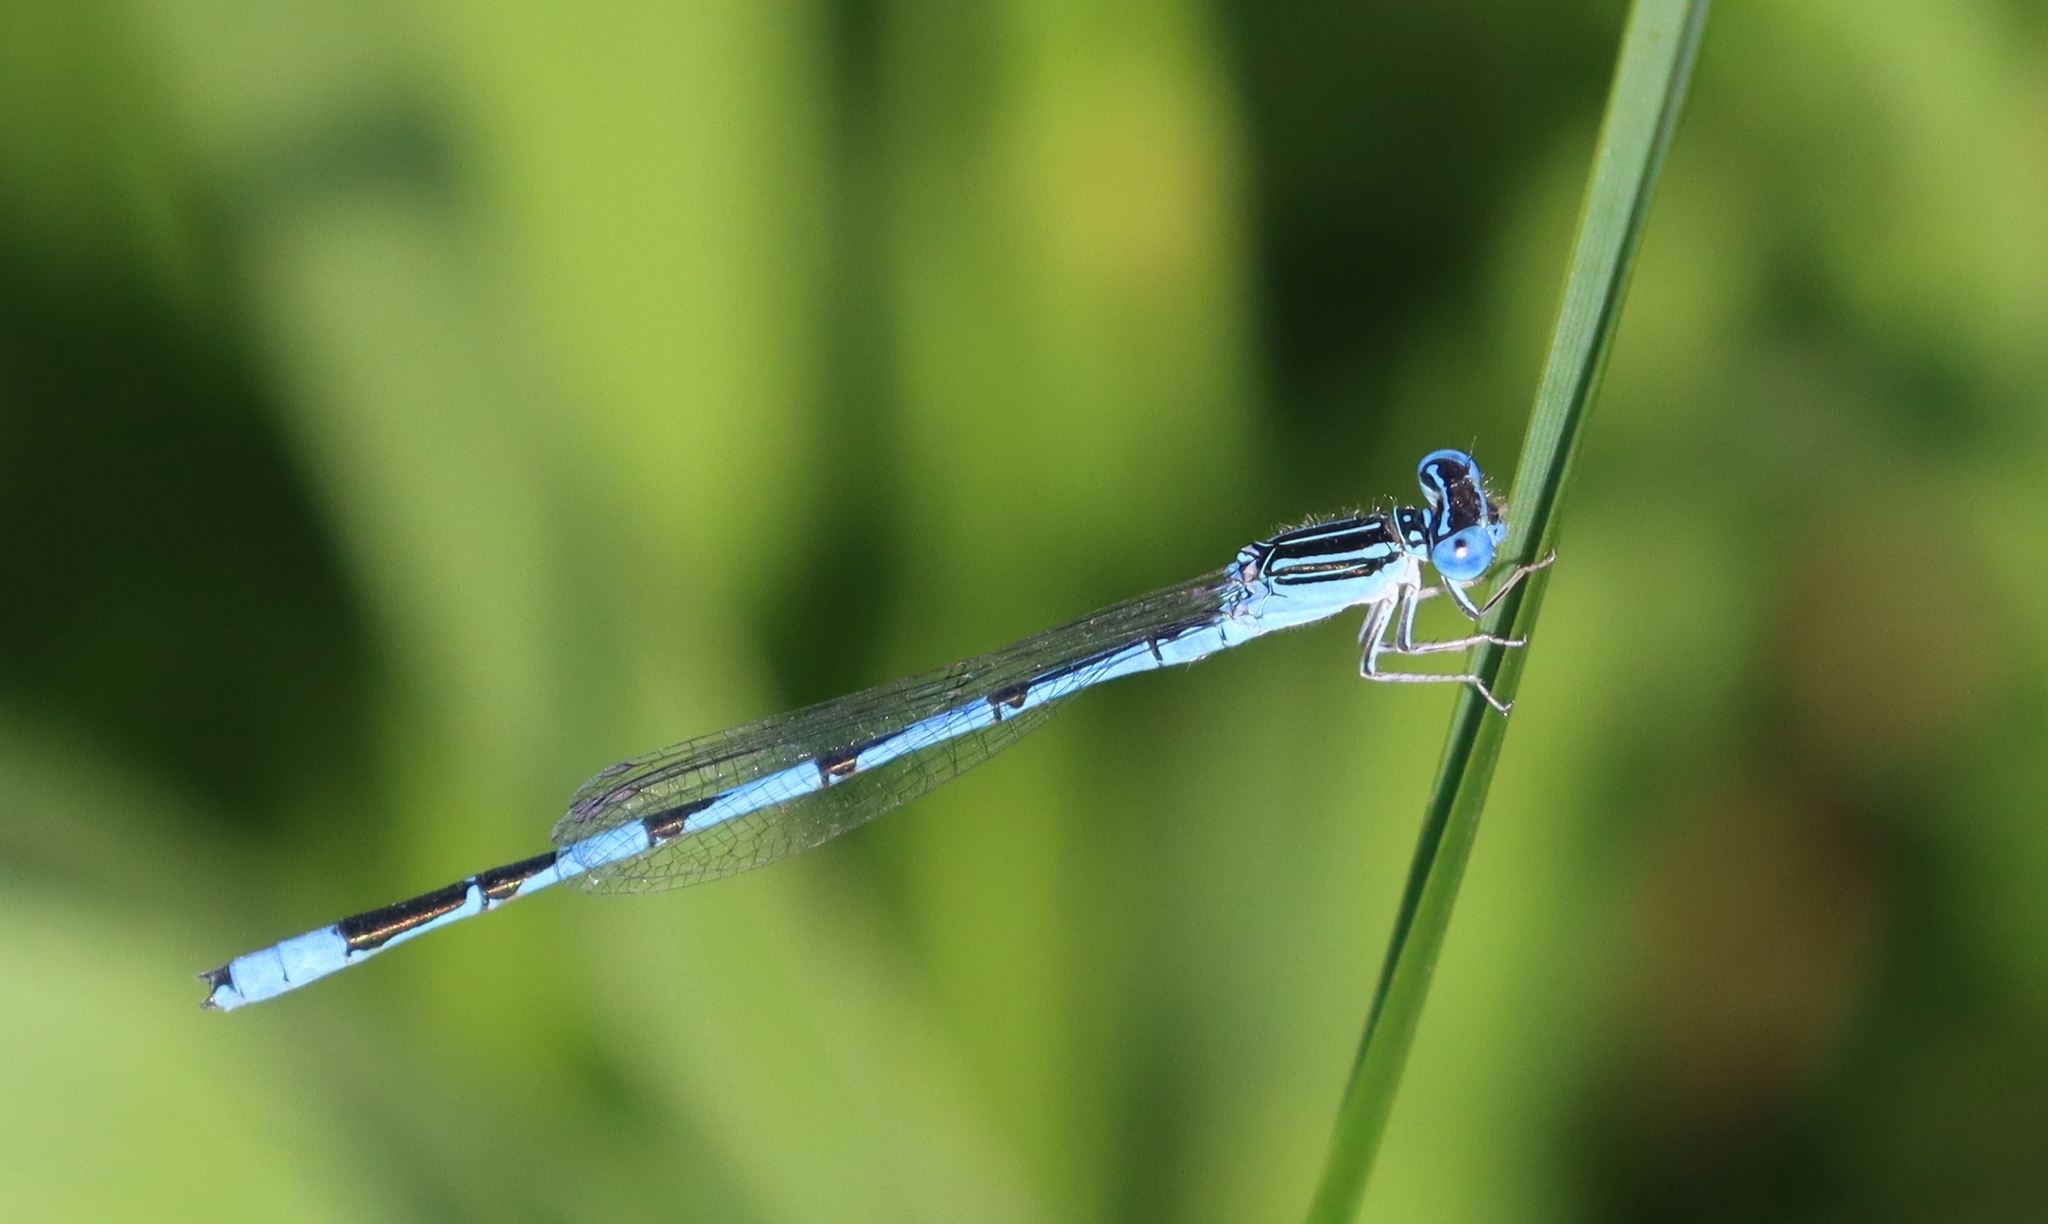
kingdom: Animalia
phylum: Arthropoda
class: Insecta
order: Odonata
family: Coenagrionidae
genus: Enallagma
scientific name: Enallagma basidens
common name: Double-striped bluet
